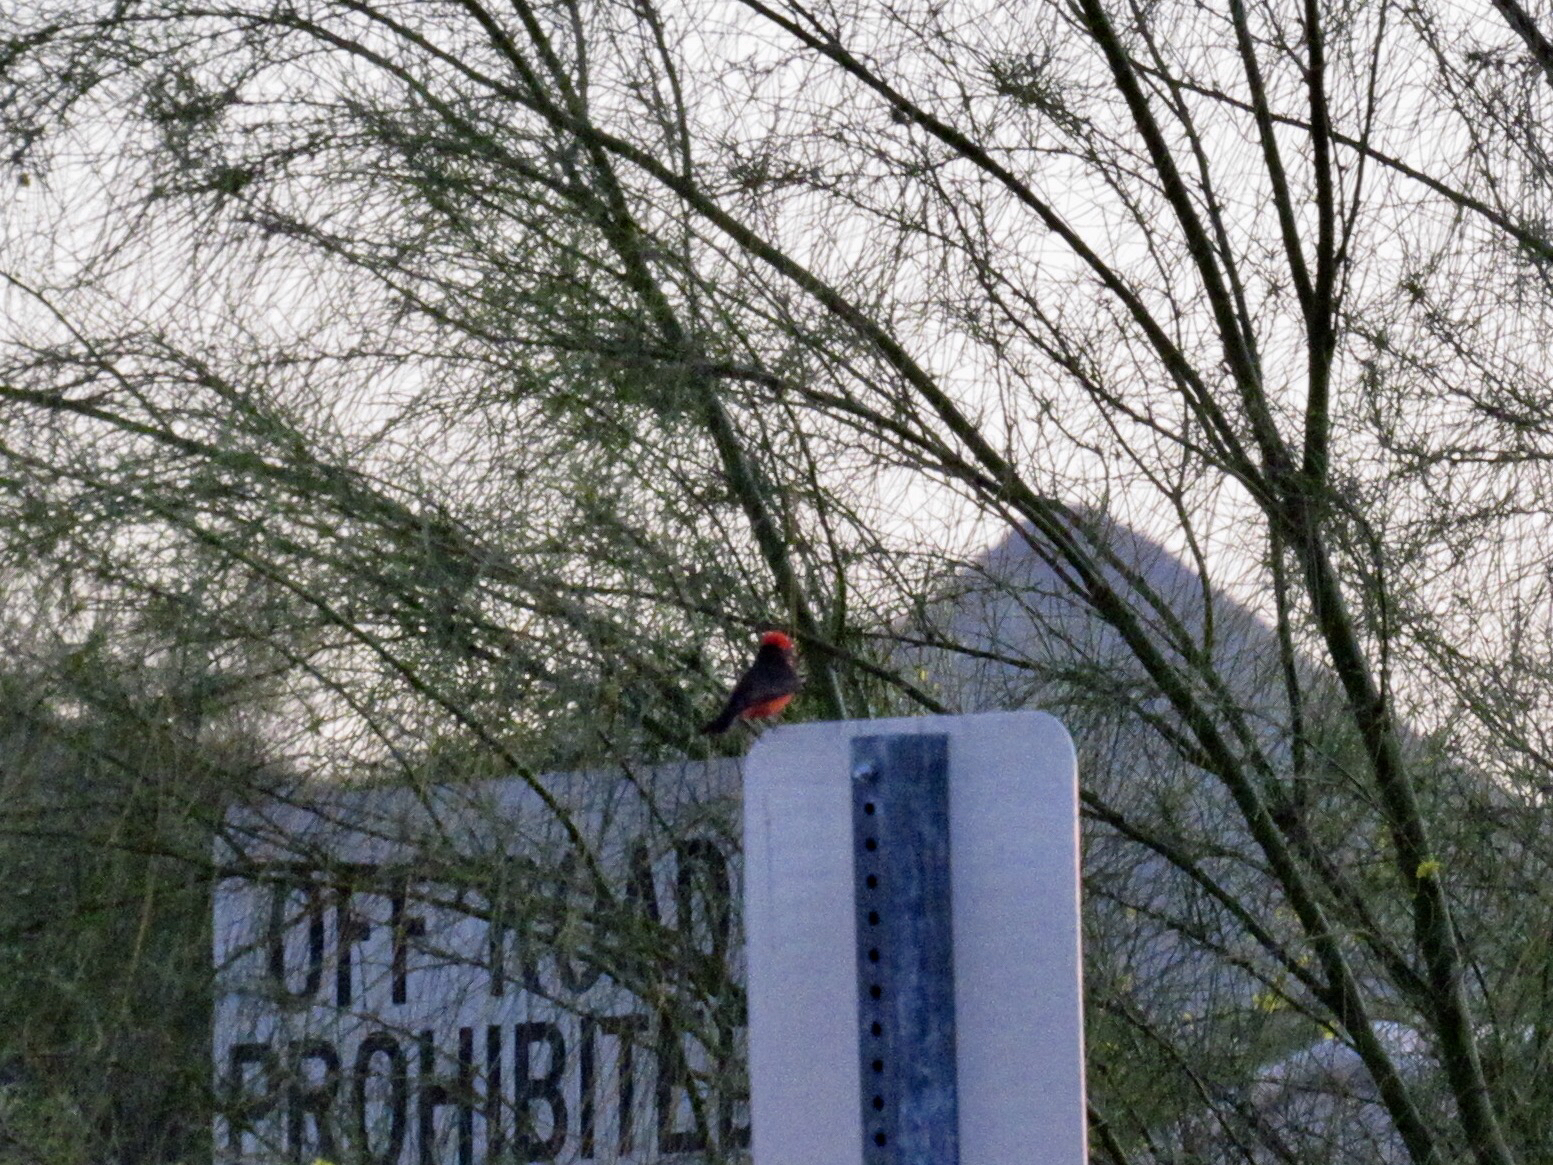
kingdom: Animalia
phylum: Chordata
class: Aves
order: Passeriformes
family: Tyrannidae
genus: Pyrocephalus
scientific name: Pyrocephalus rubinus
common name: Vermilion flycatcher
